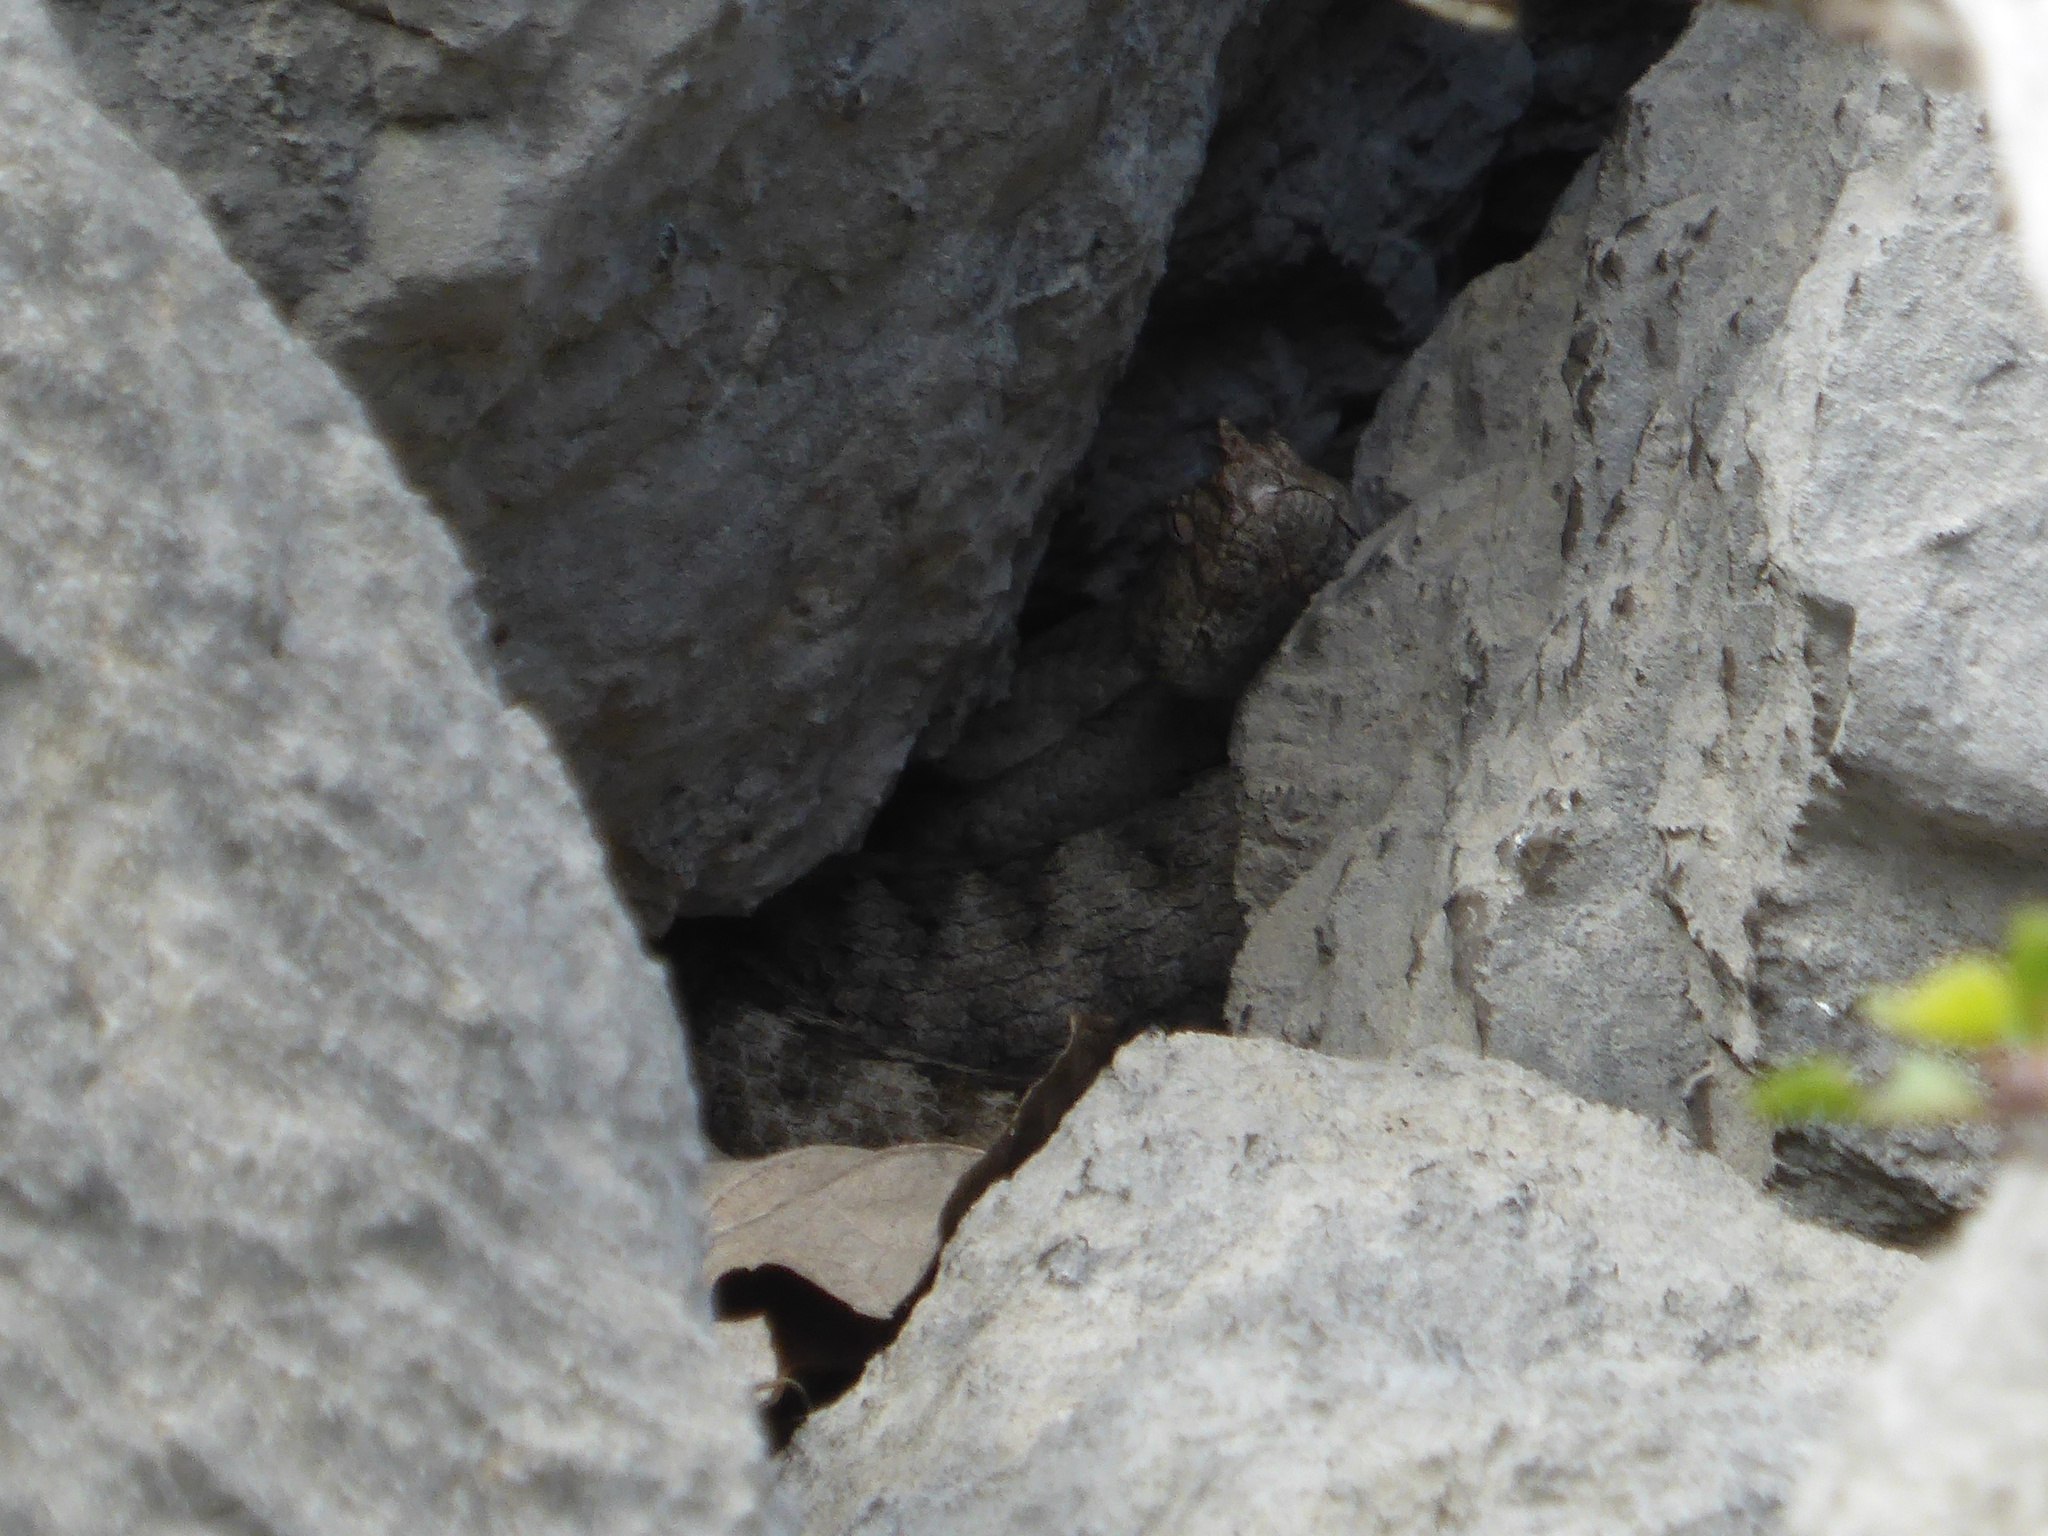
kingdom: Animalia
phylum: Chordata
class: Squamata
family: Viperidae
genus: Vipera
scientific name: Vipera ammodytes
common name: Sand viper
